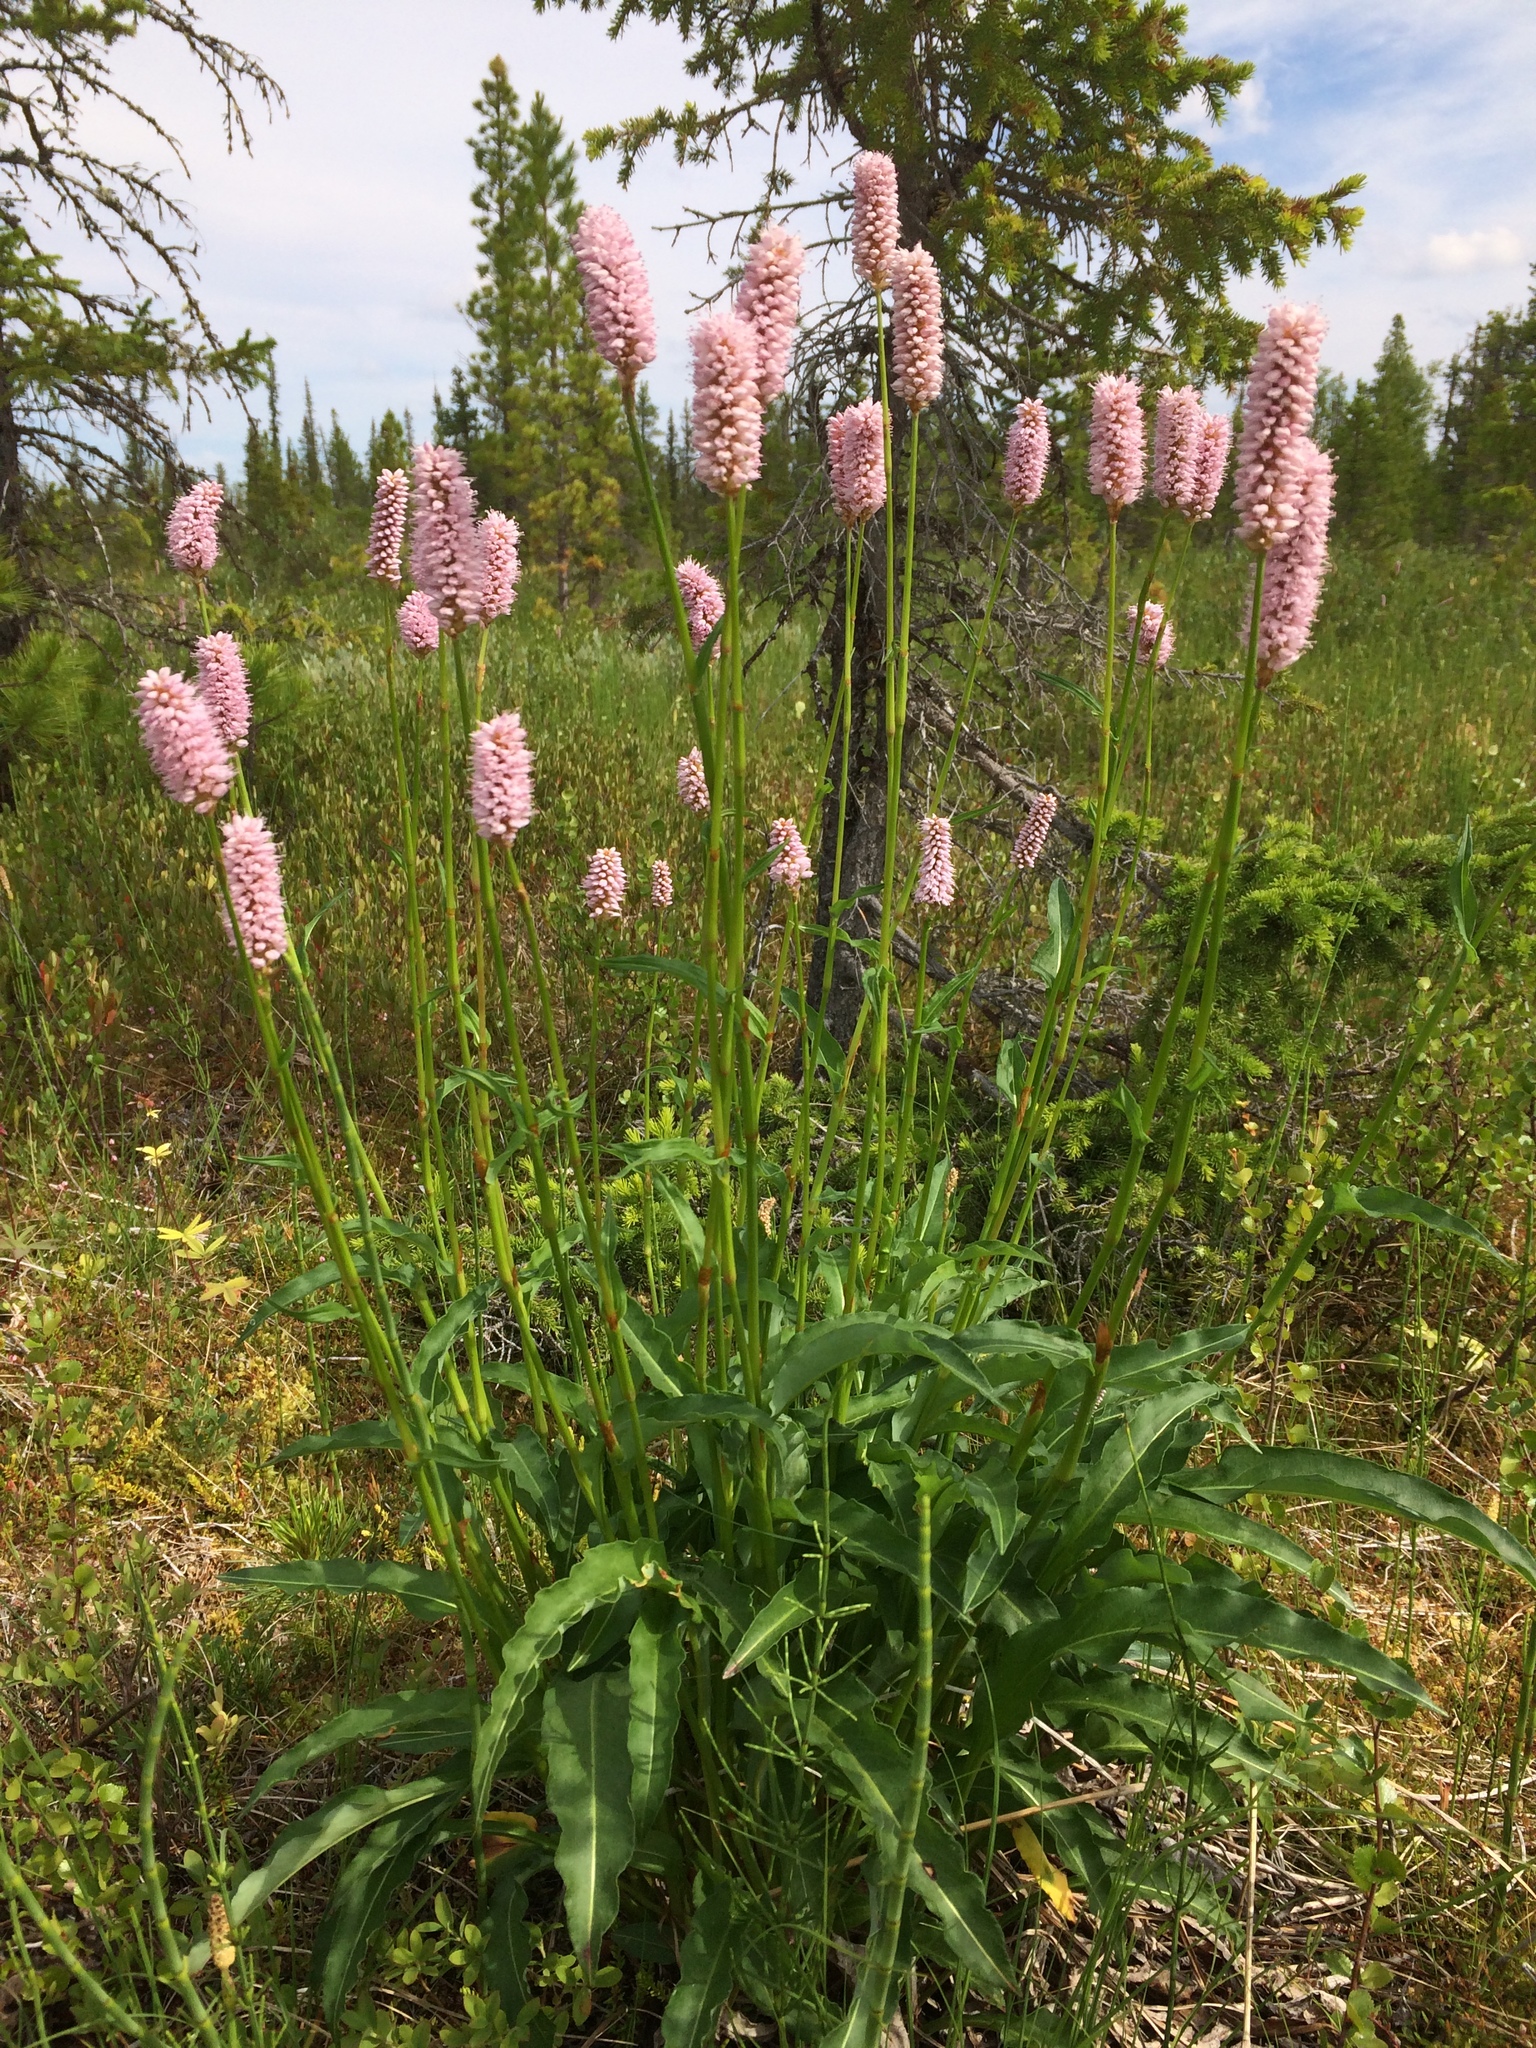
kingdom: Plantae
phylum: Tracheophyta
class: Magnoliopsida
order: Caryophyllales
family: Polygonaceae
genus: Bistorta
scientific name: Bistorta officinalis
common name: Common bistort
